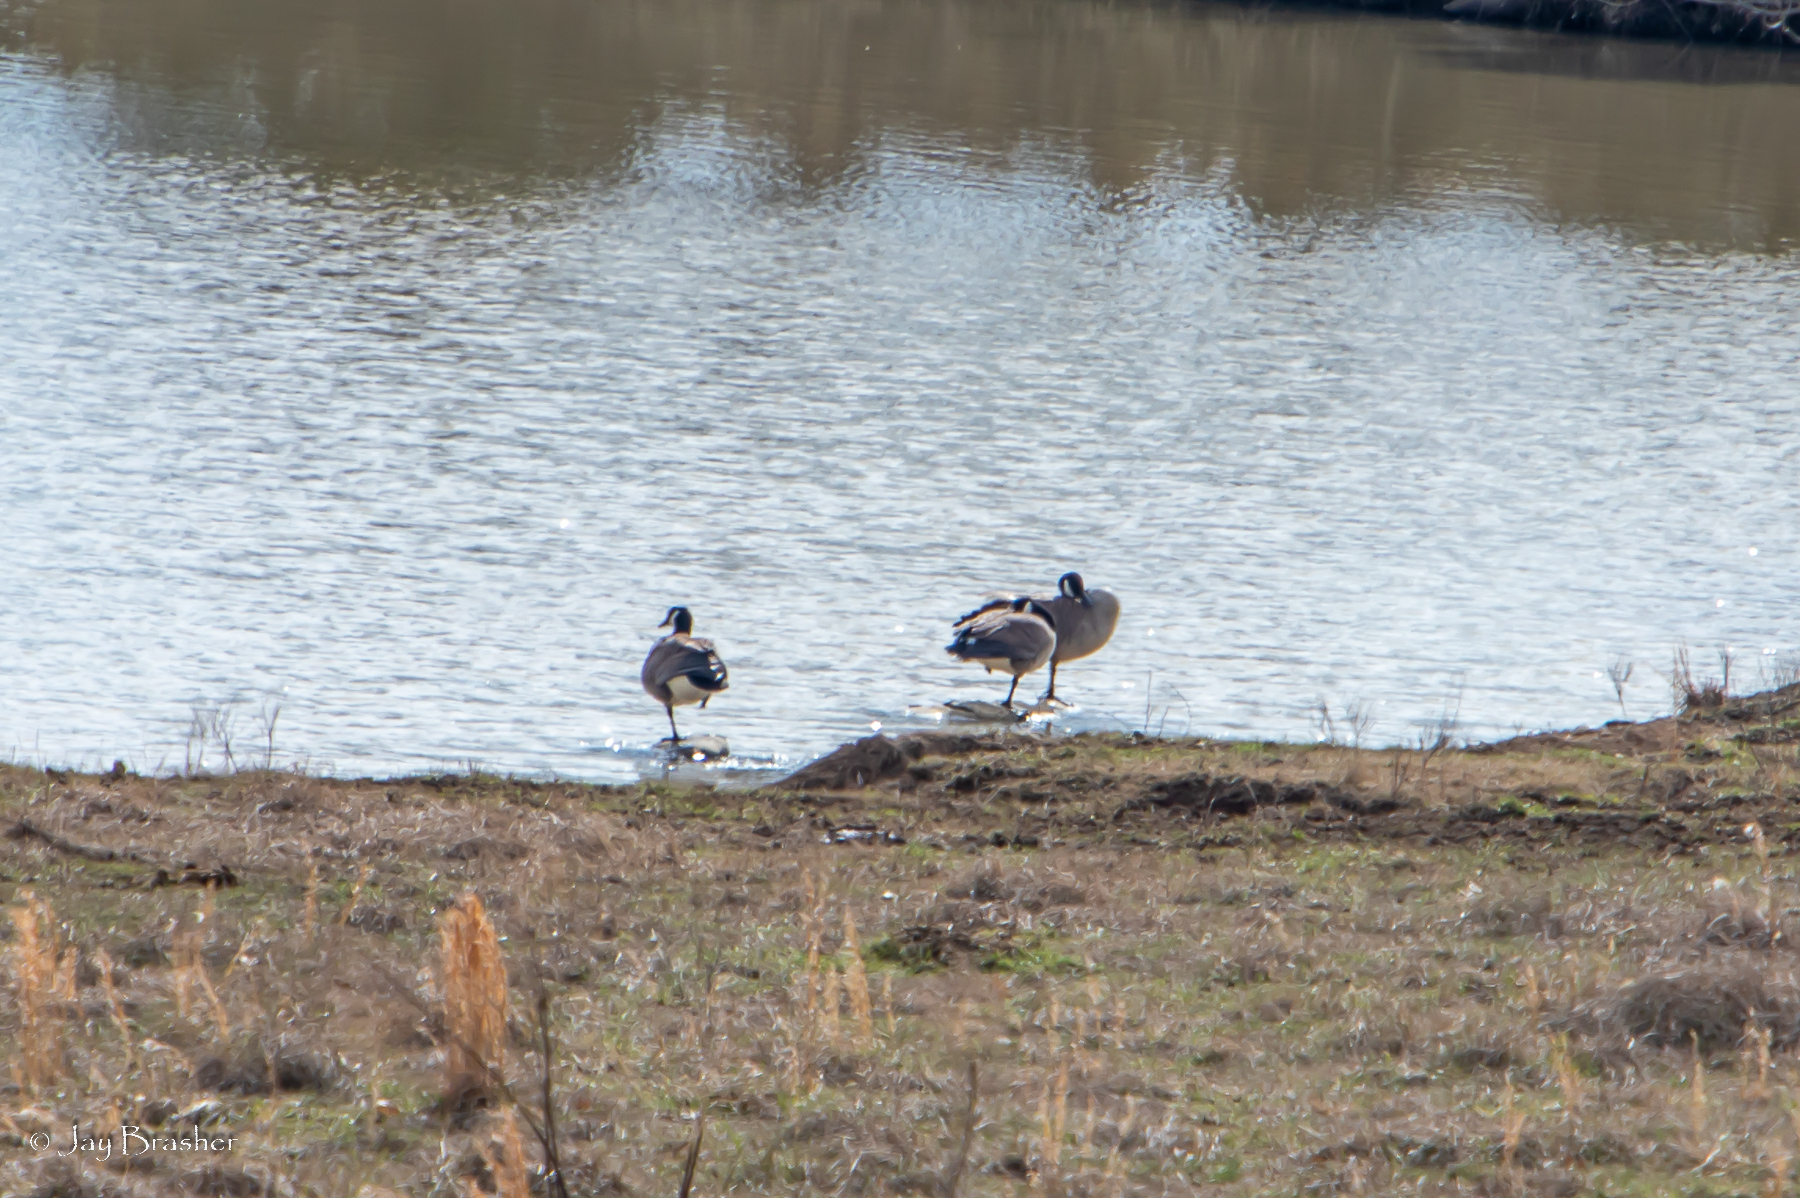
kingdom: Animalia
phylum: Chordata
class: Aves
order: Anseriformes
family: Anatidae
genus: Branta
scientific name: Branta canadensis
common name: Canada goose
